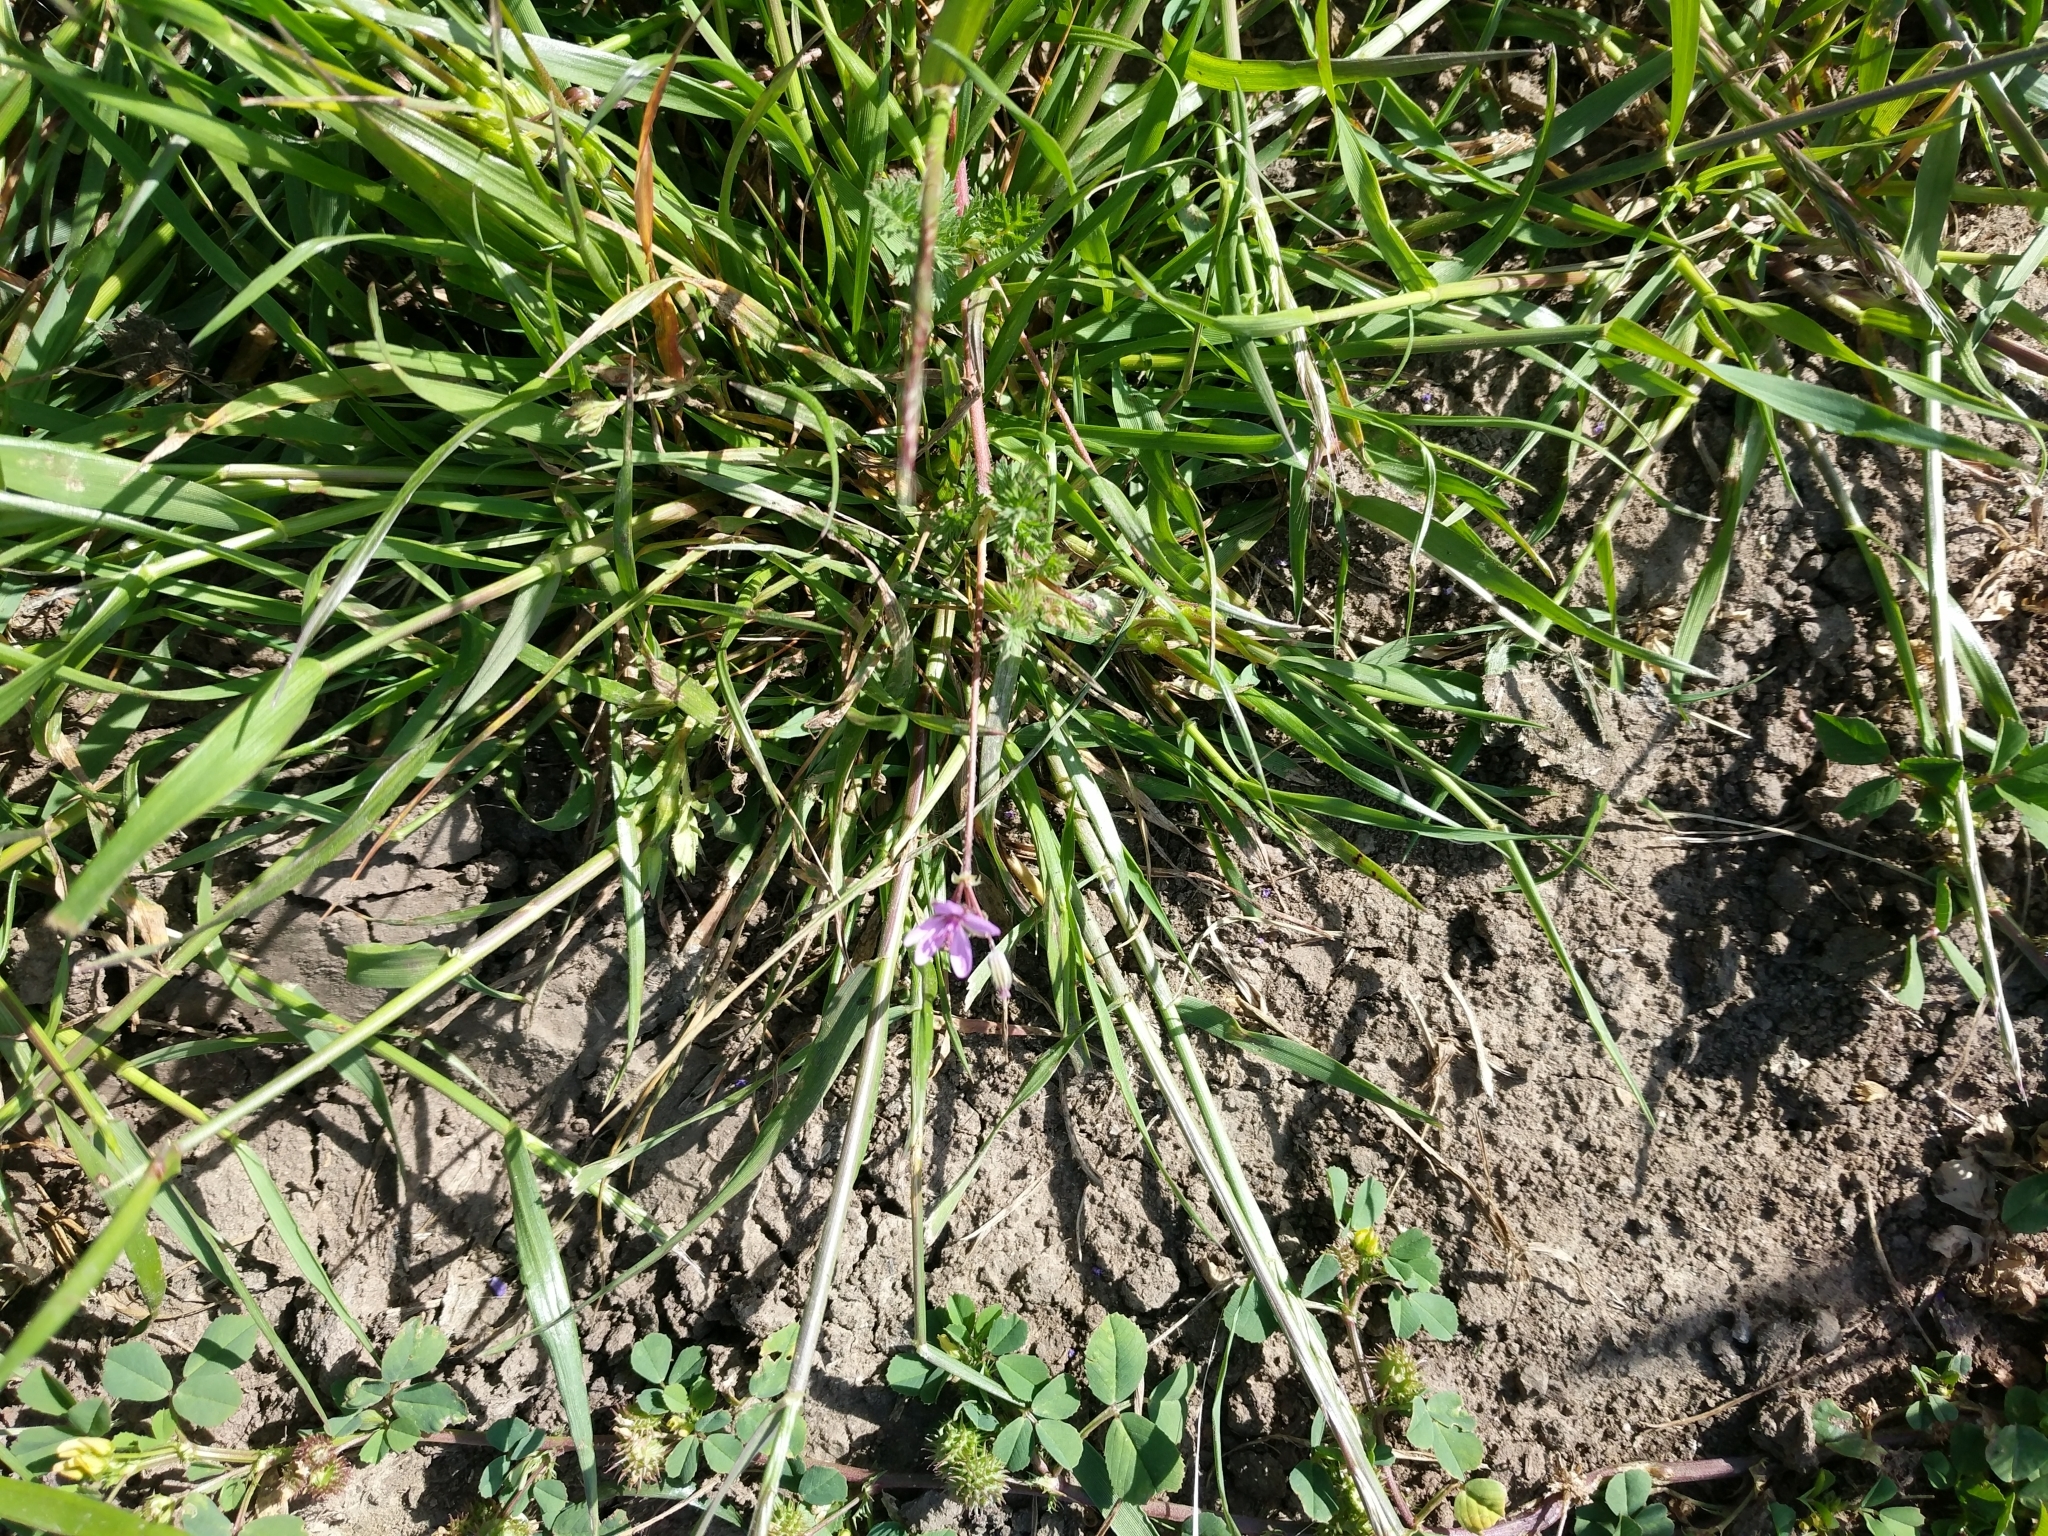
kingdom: Plantae
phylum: Tracheophyta
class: Magnoliopsida
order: Geraniales
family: Geraniaceae
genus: Erodium
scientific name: Erodium cicutarium
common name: Common stork's-bill
